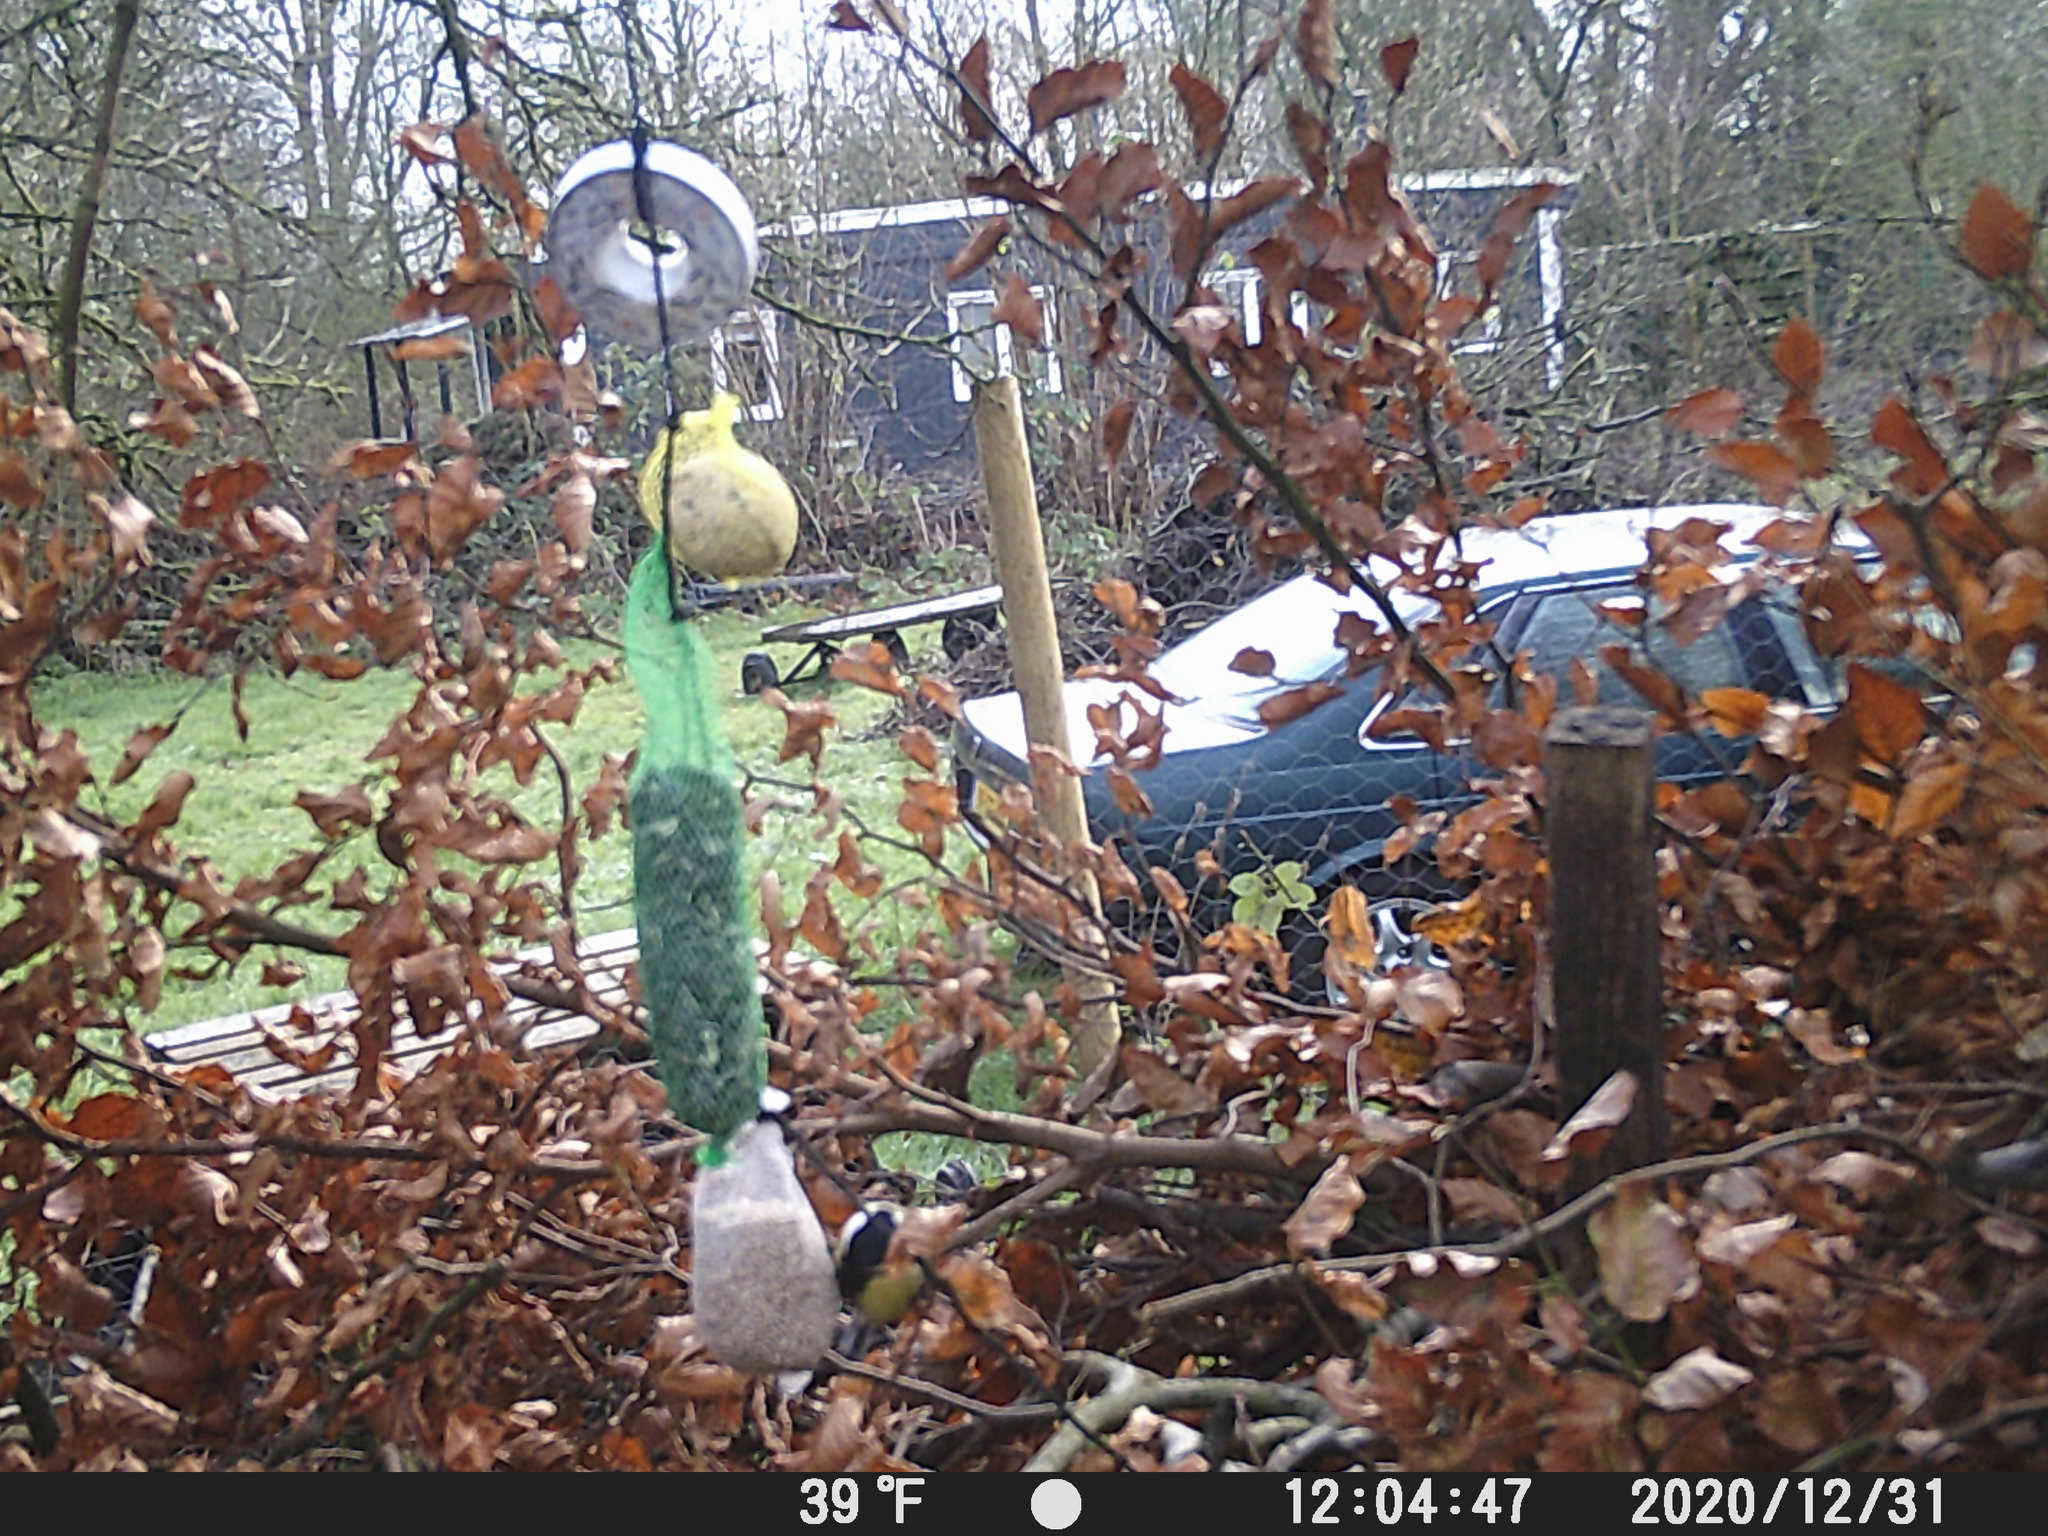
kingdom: Animalia
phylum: Chordata
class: Aves
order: Passeriformes
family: Paridae
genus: Parus
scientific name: Parus major
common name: Great tit
